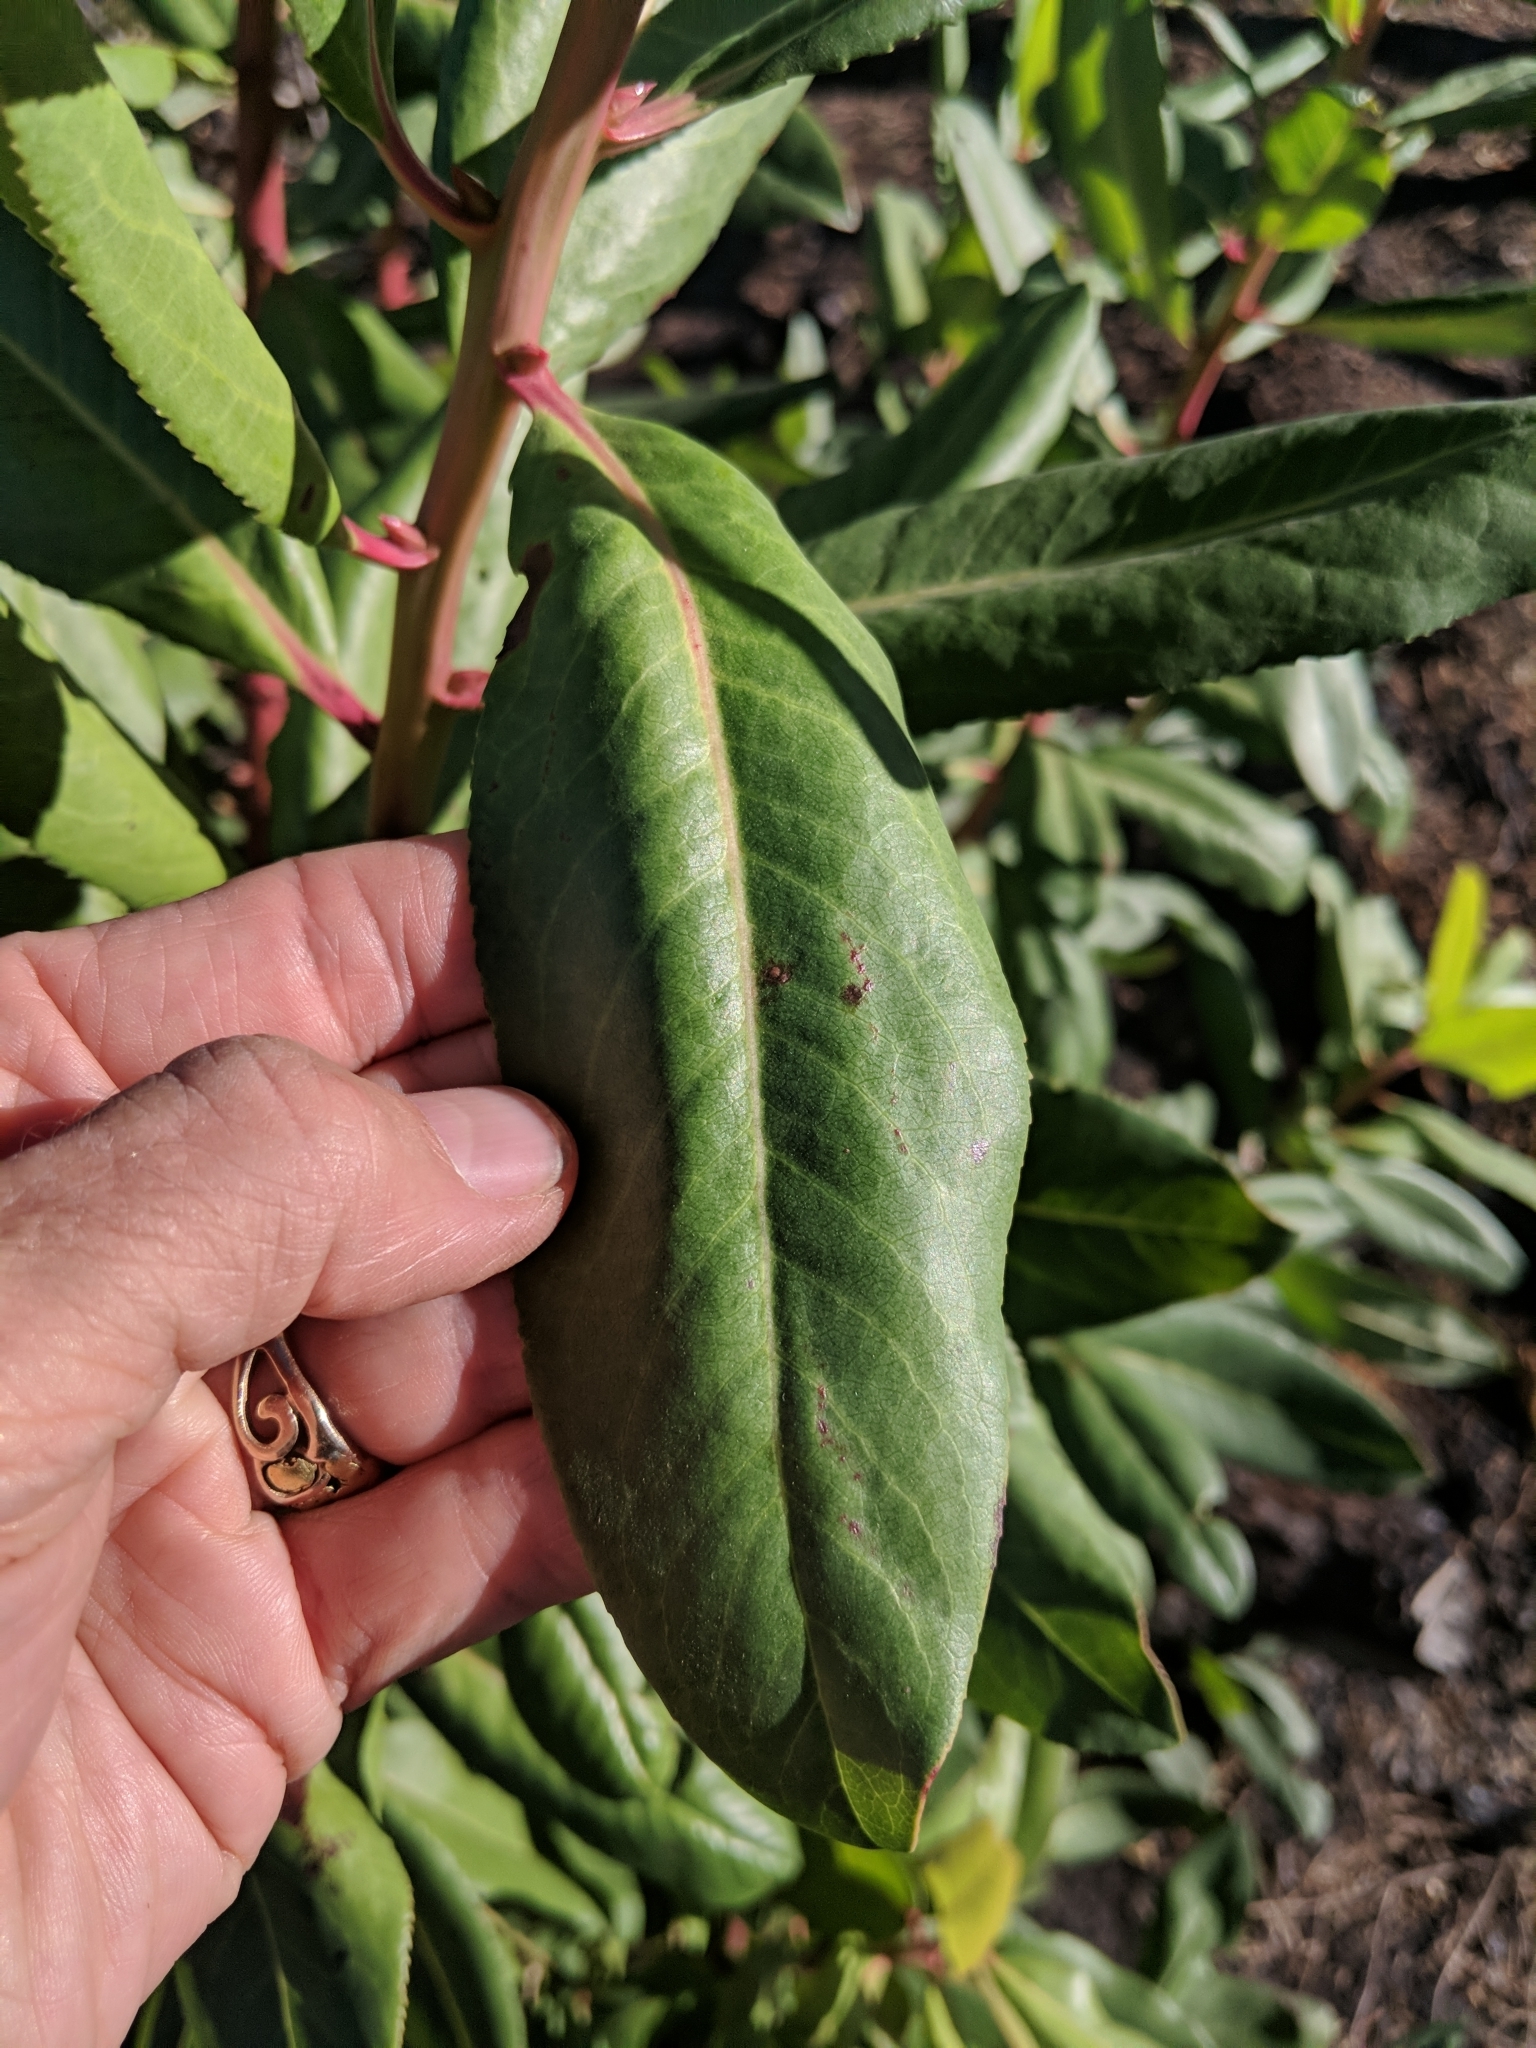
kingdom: Plantae
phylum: Tracheophyta
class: Magnoliopsida
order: Ericales
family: Ericaceae
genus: Arbutus
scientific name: Arbutus menziesii
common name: Pacific madrone
